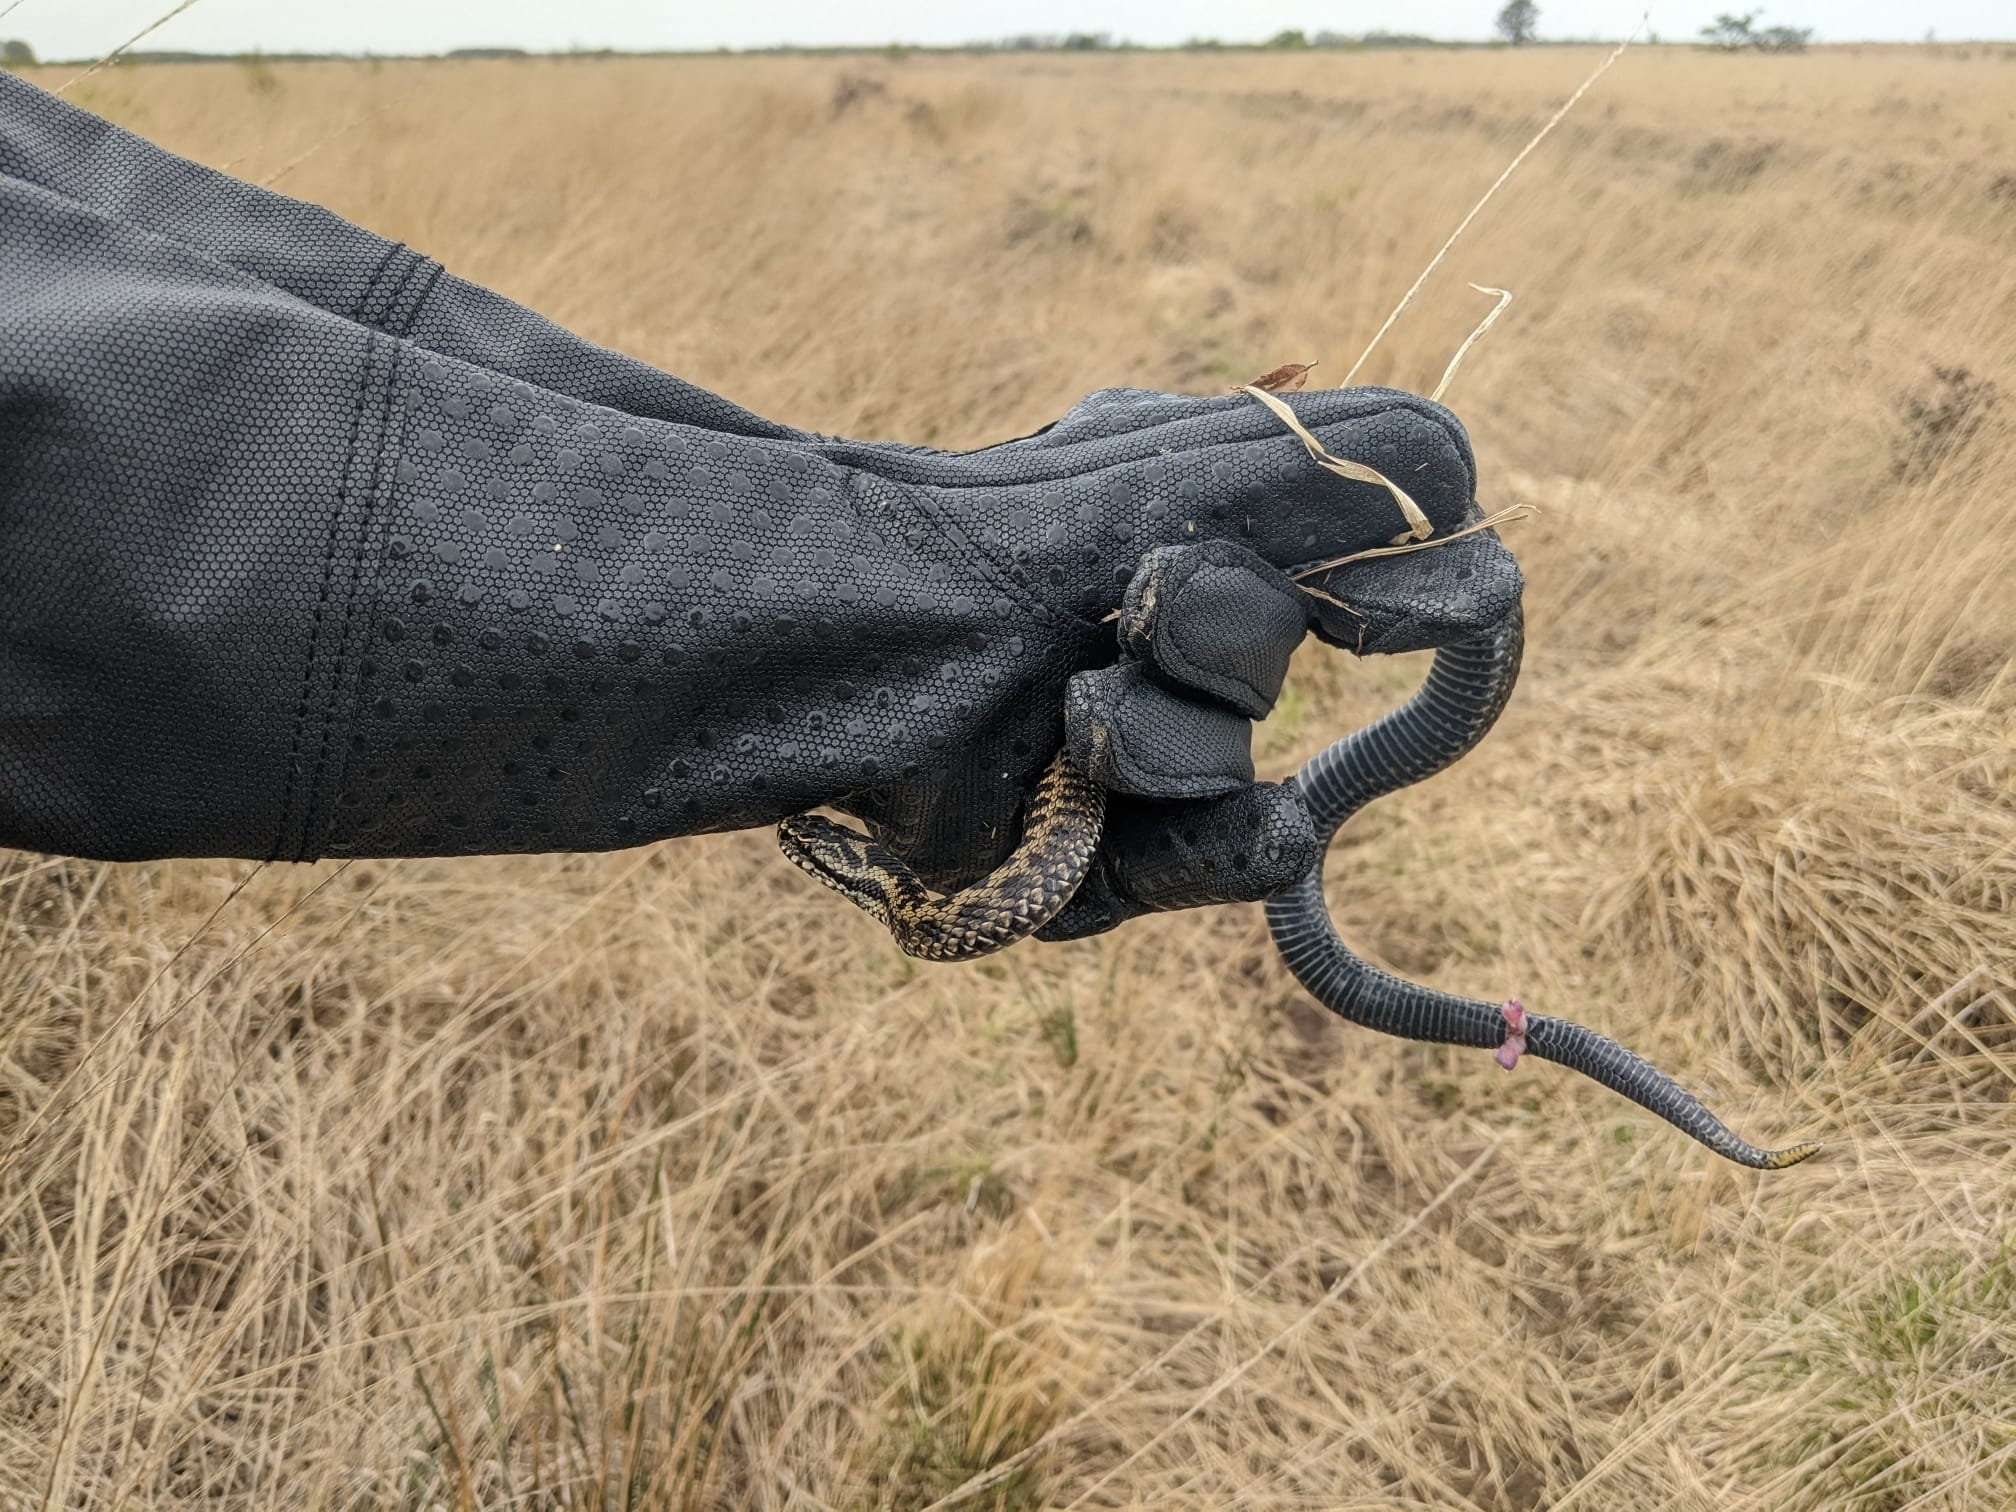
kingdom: Animalia
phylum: Chordata
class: Squamata
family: Viperidae
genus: Vipera
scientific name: Vipera berus
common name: Adder
